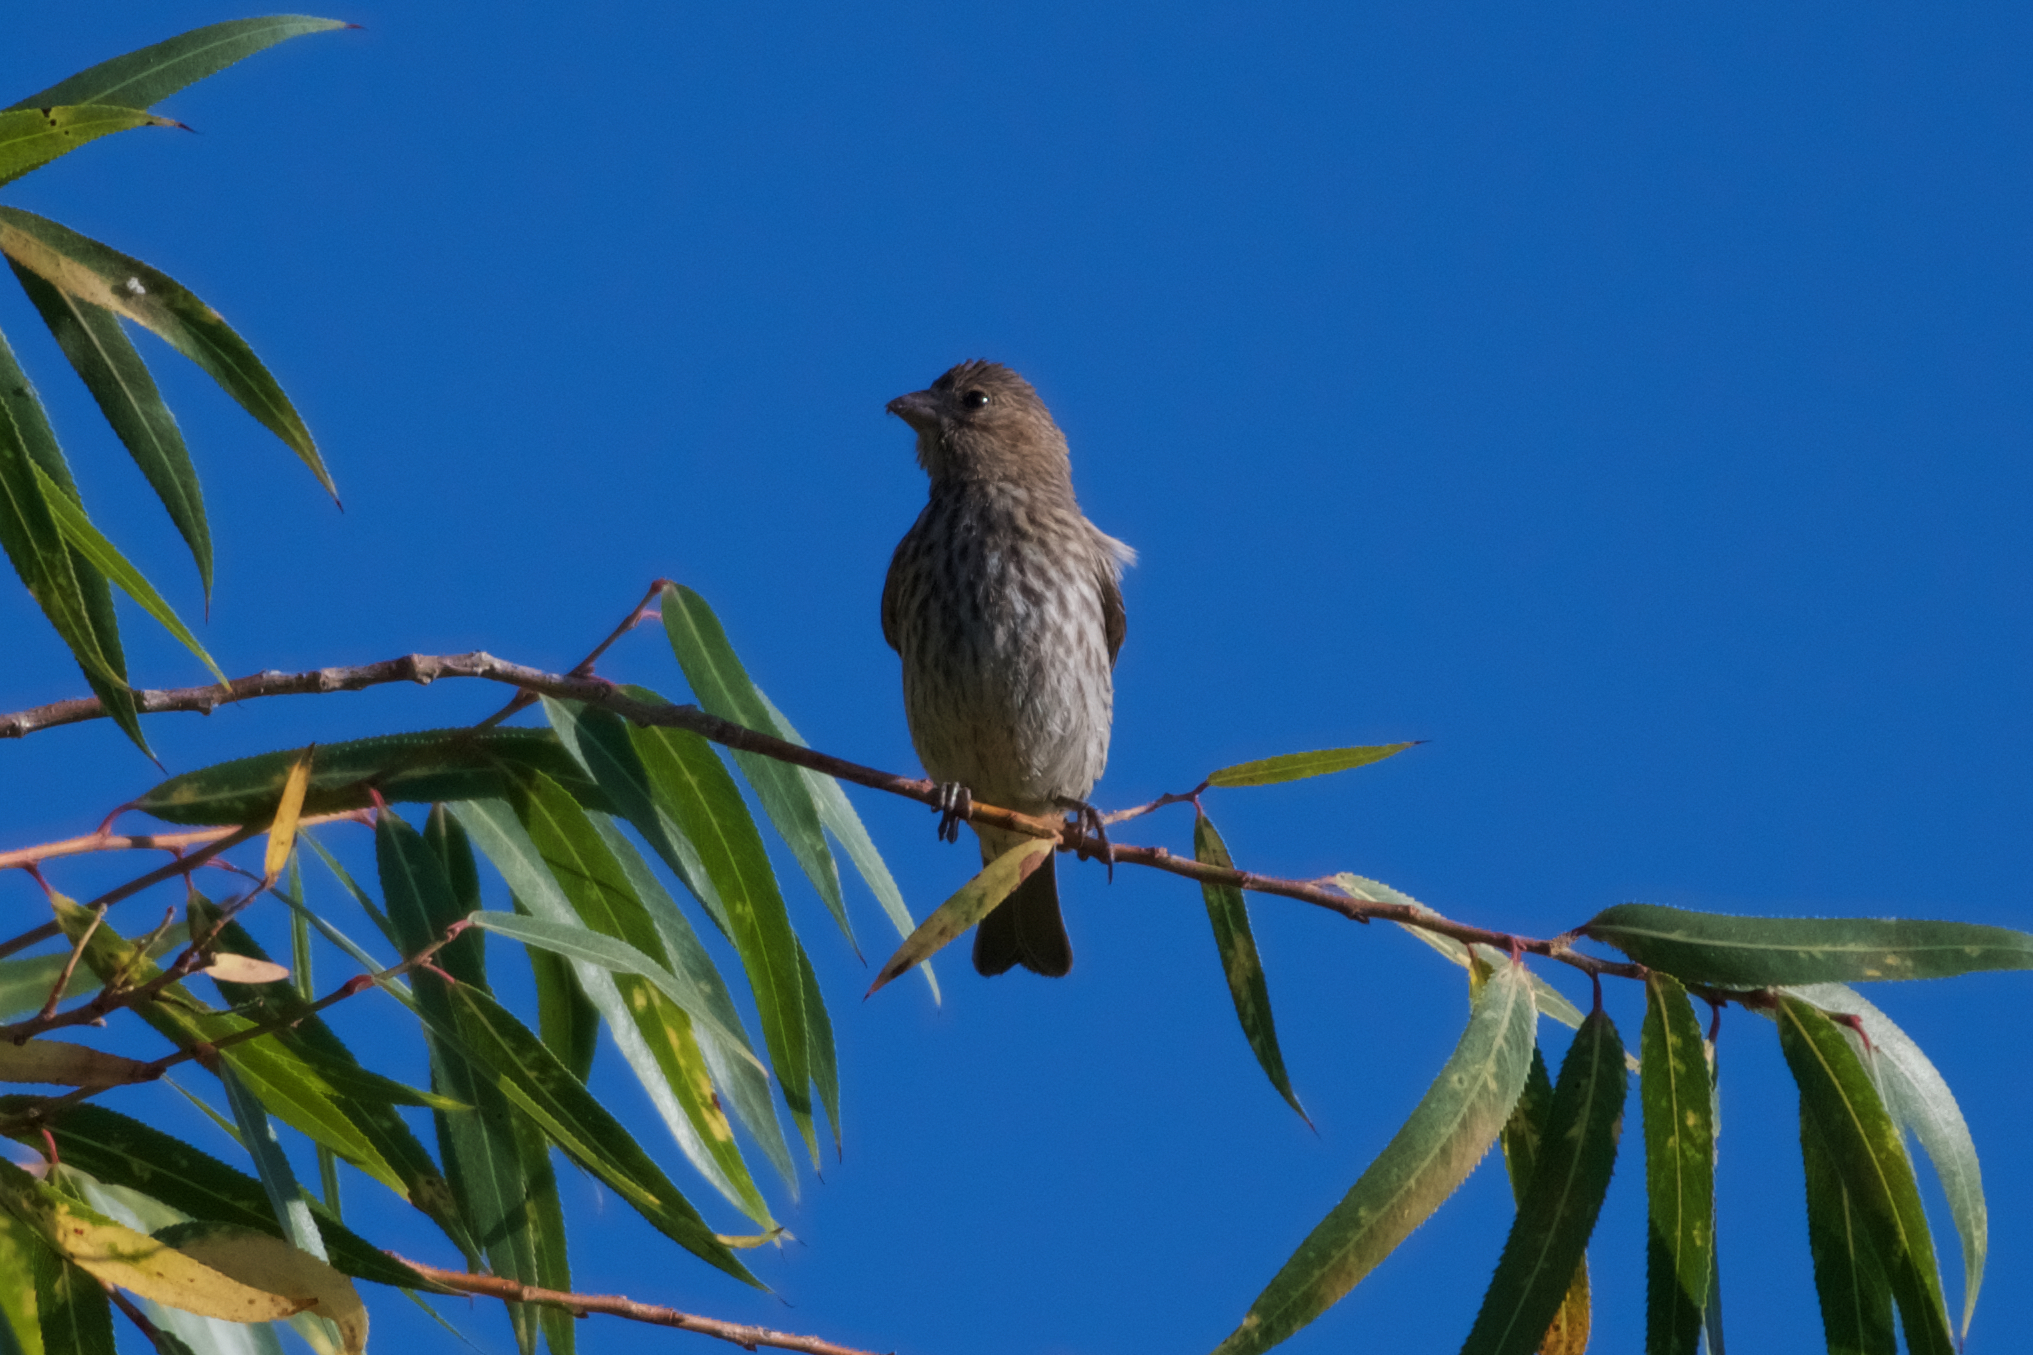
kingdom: Animalia
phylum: Chordata
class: Aves
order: Passeriformes
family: Fringillidae
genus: Haemorhous
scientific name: Haemorhous mexicanus
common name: House finch
